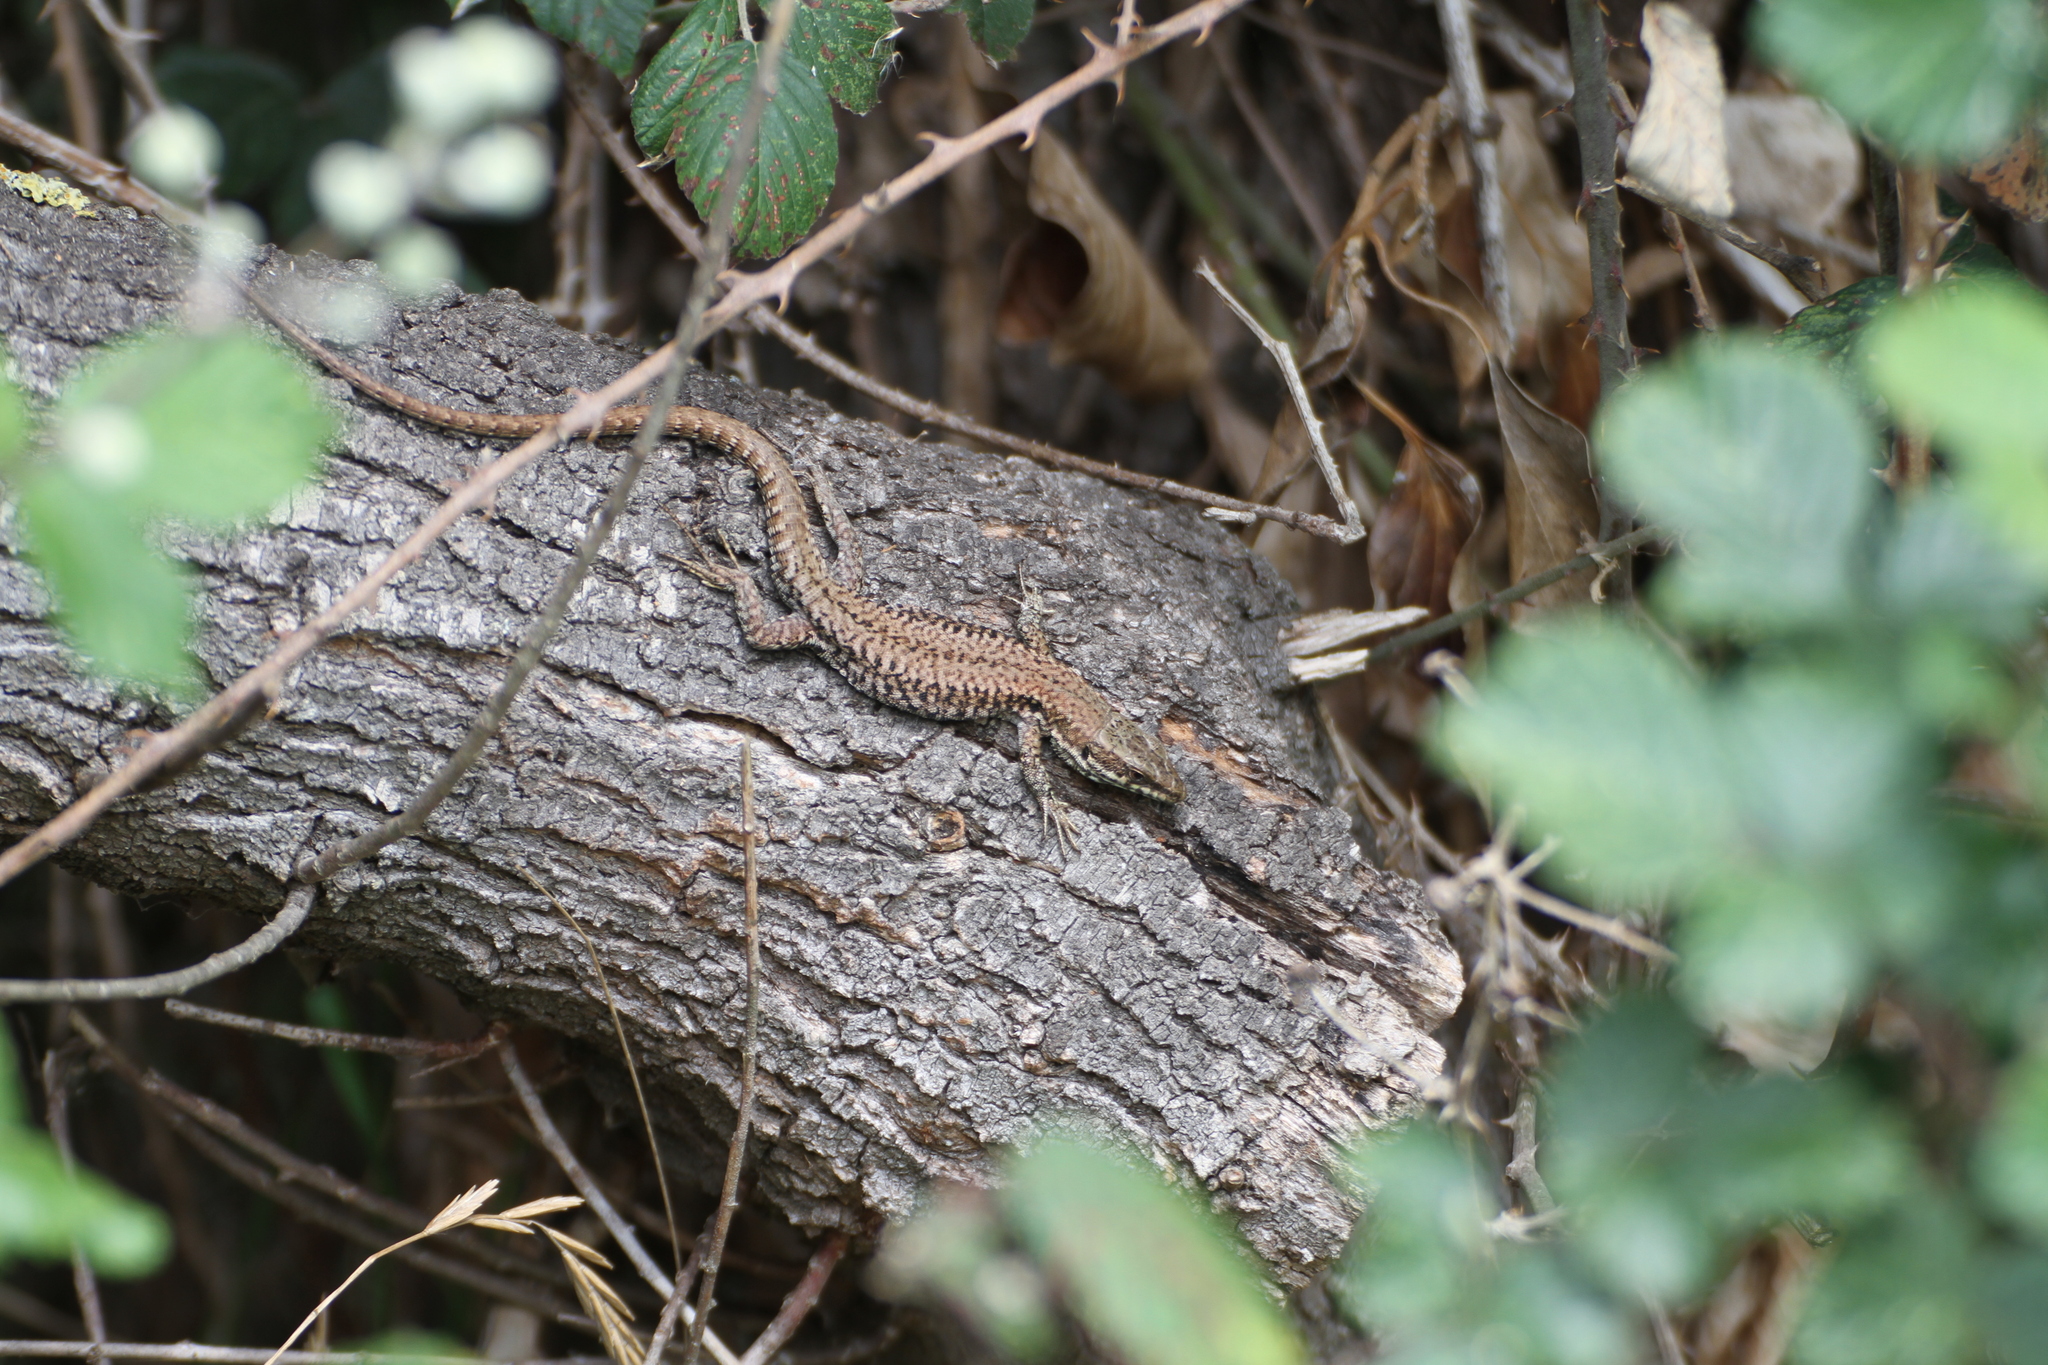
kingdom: Animalia
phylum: Chordata
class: Squamata
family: Lacertidae
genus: Podarcis
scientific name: Podarcis muralis
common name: Common wall lizard
